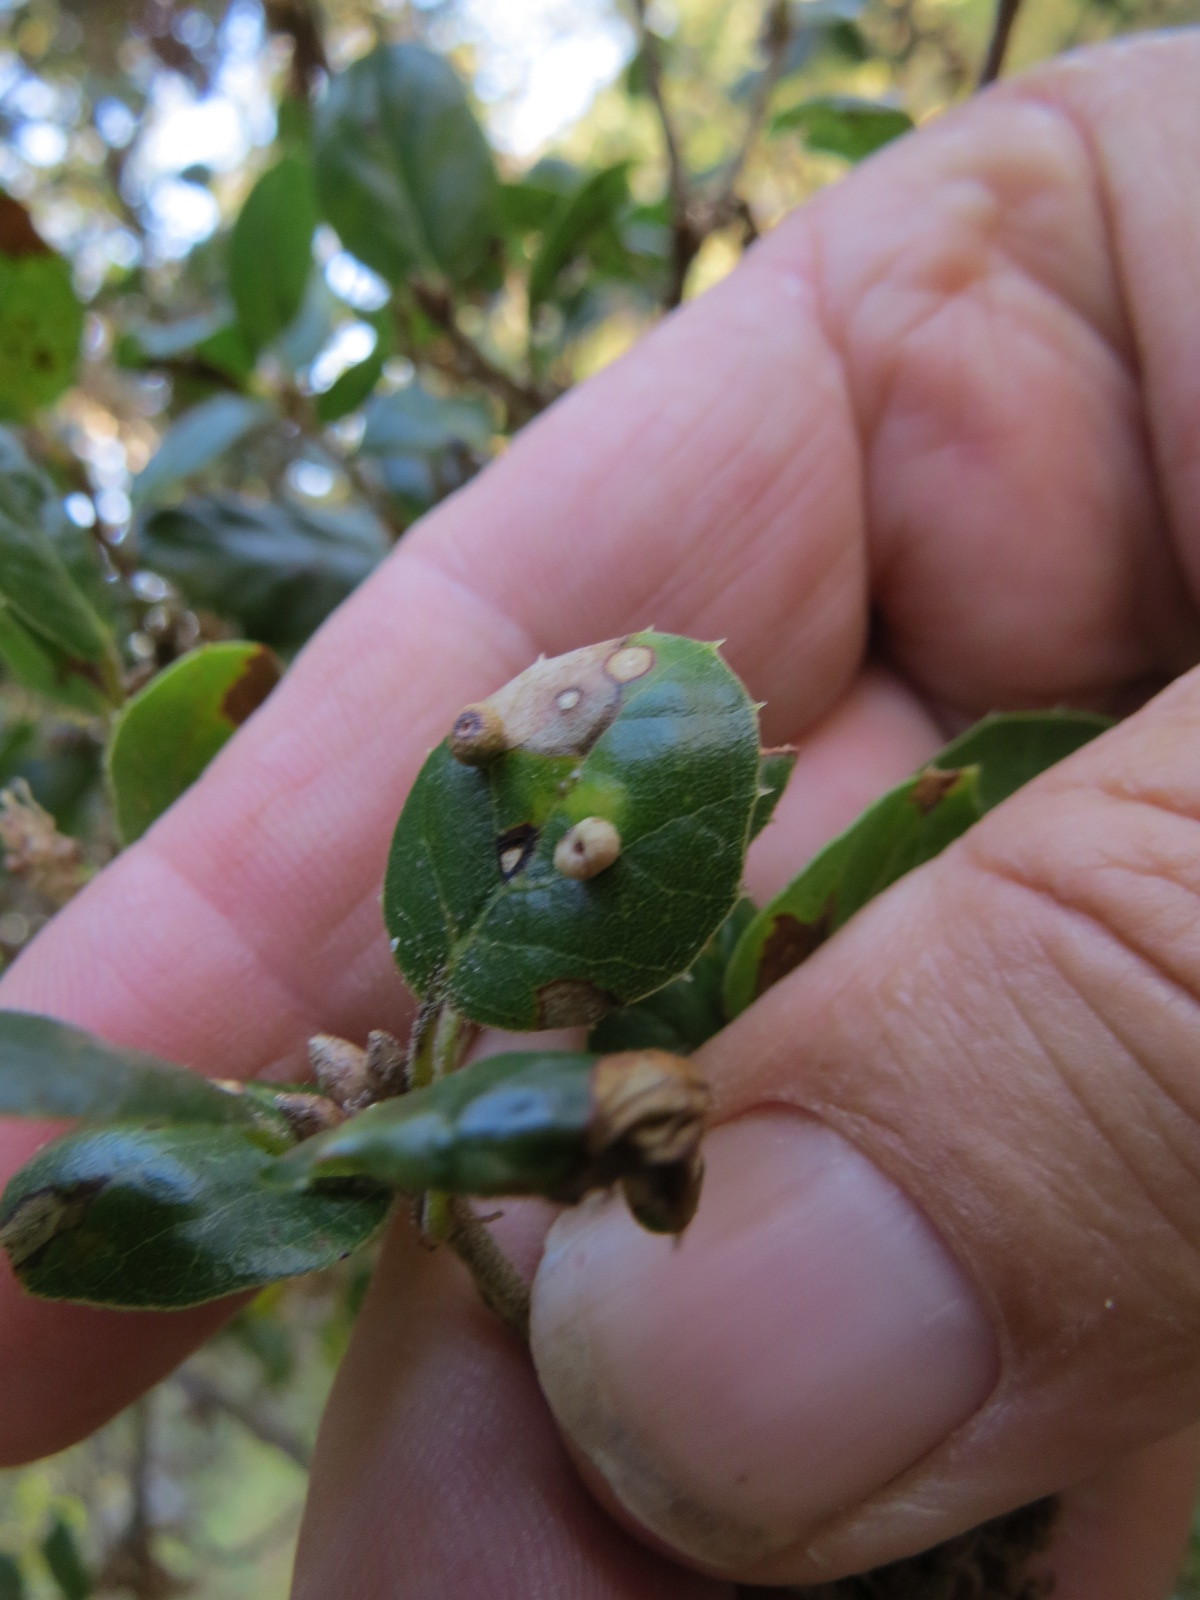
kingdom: Animalia
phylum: Arthropoda
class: Insecta
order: Hymenoptera
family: Cynipidae
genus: Dryocosmus
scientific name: Dryocosmus
